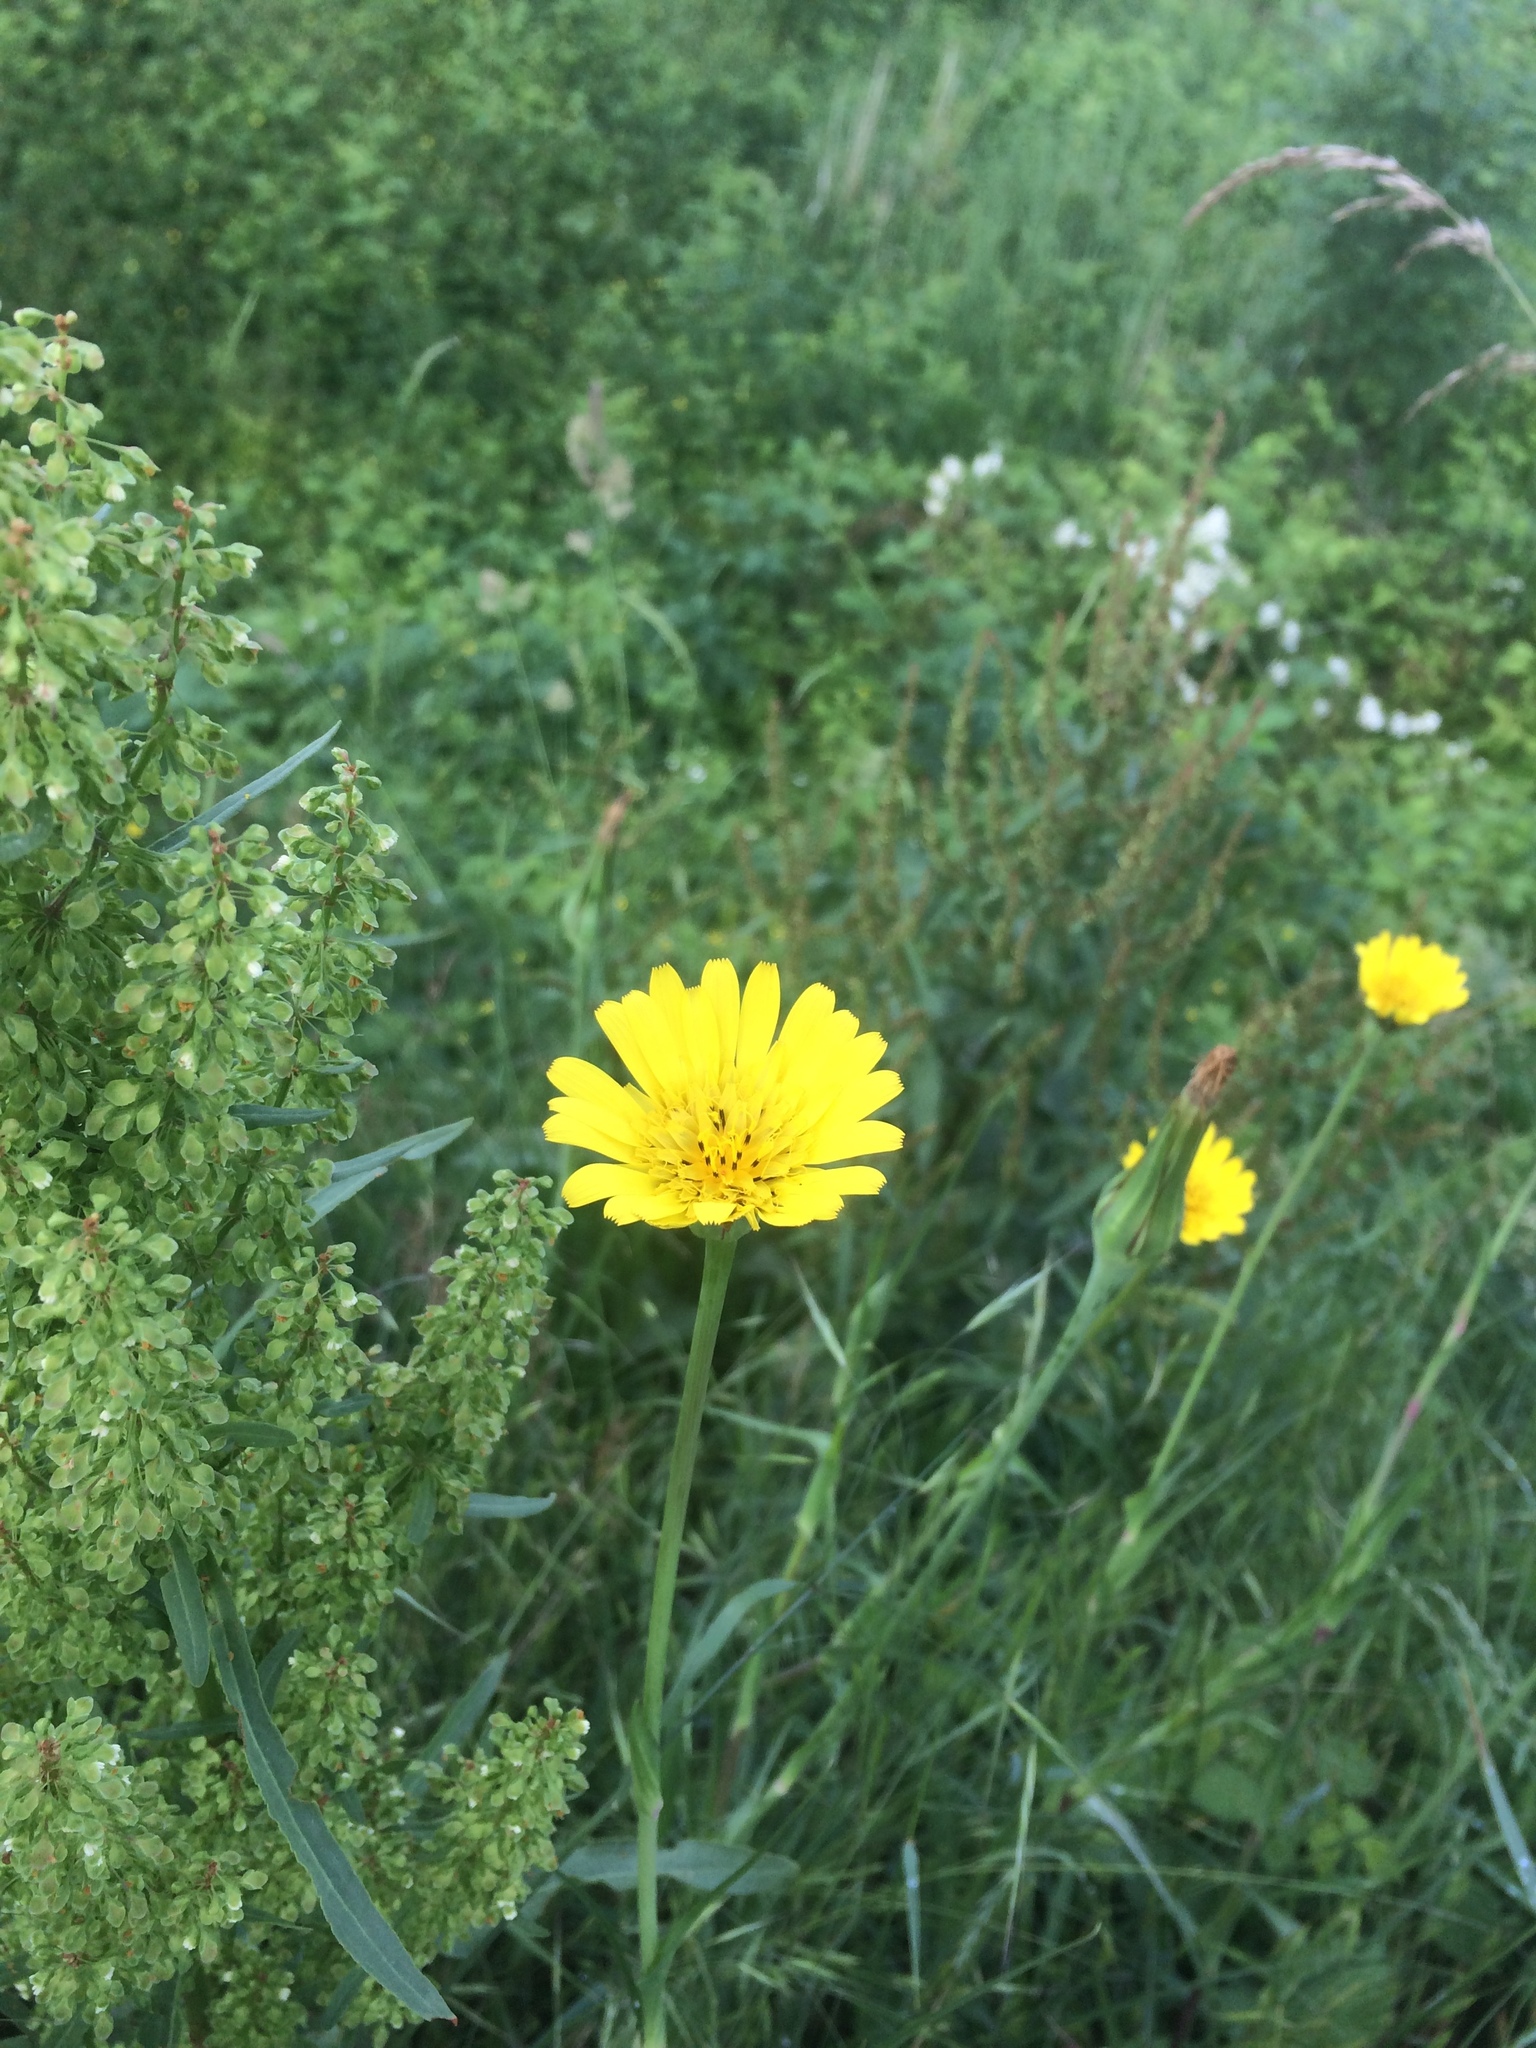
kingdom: Plantae
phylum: Tracheophyta
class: Magnoliopsida
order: Asterales
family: Asteraceae
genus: Tragopogon
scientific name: Tragopogon pratensis
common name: Goat's-beard
